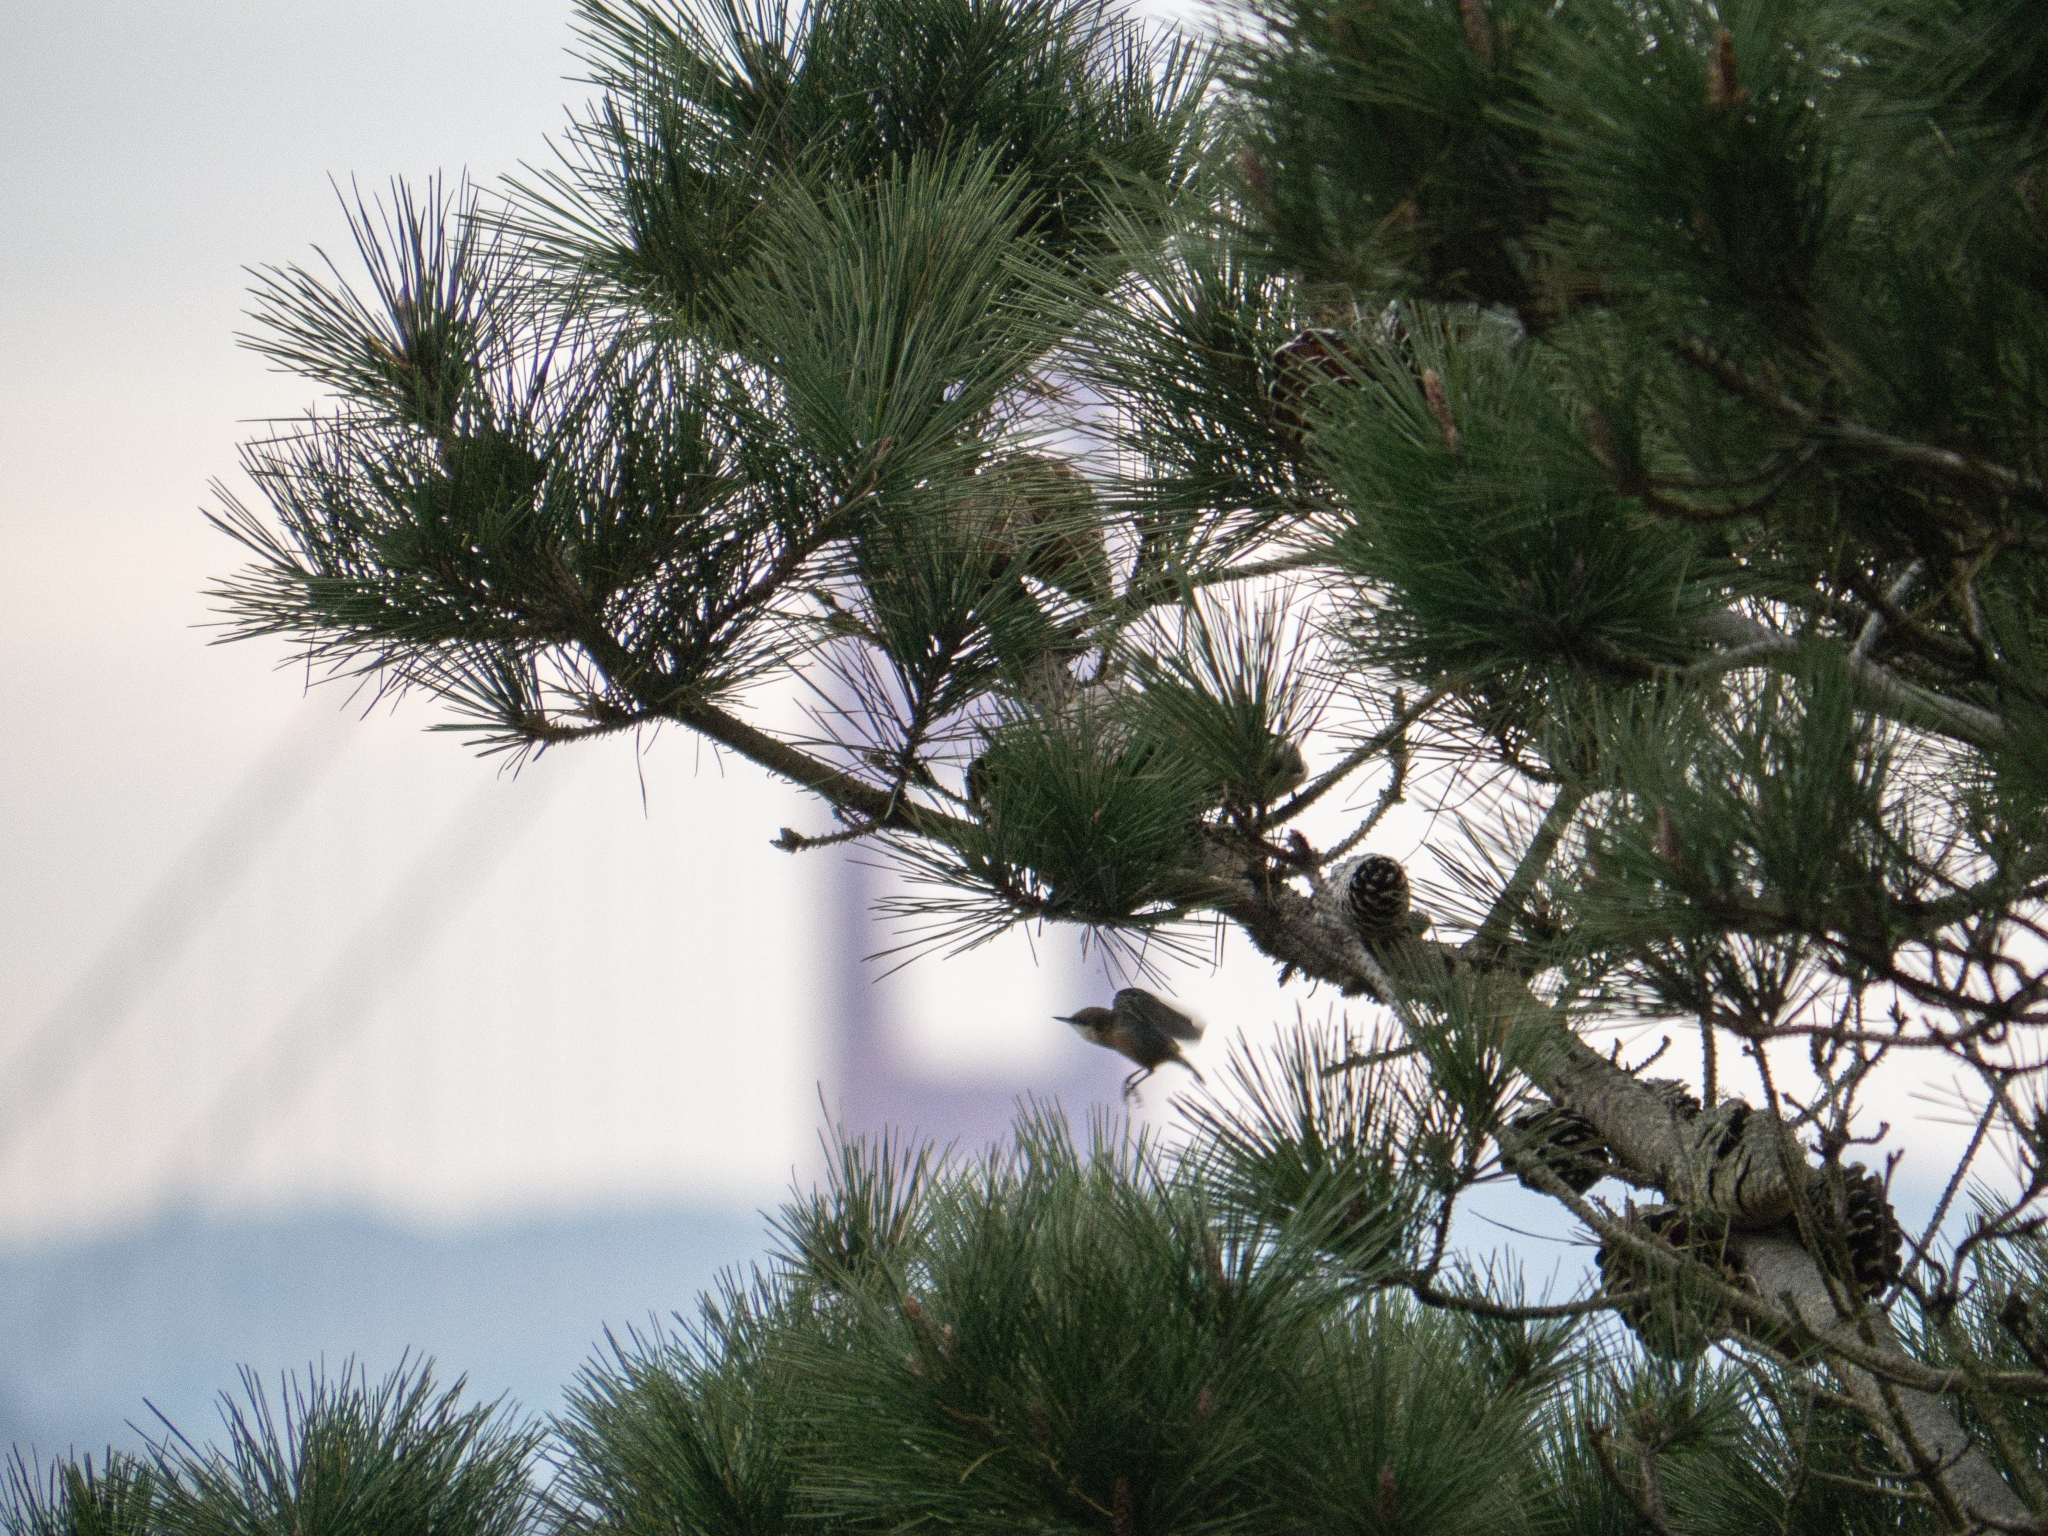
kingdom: Animalia
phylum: Chordata
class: Aves
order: Passeriformes
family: Sittidae
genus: Sitta
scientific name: Sitta pygmaea
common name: Pygmy nuthatch
